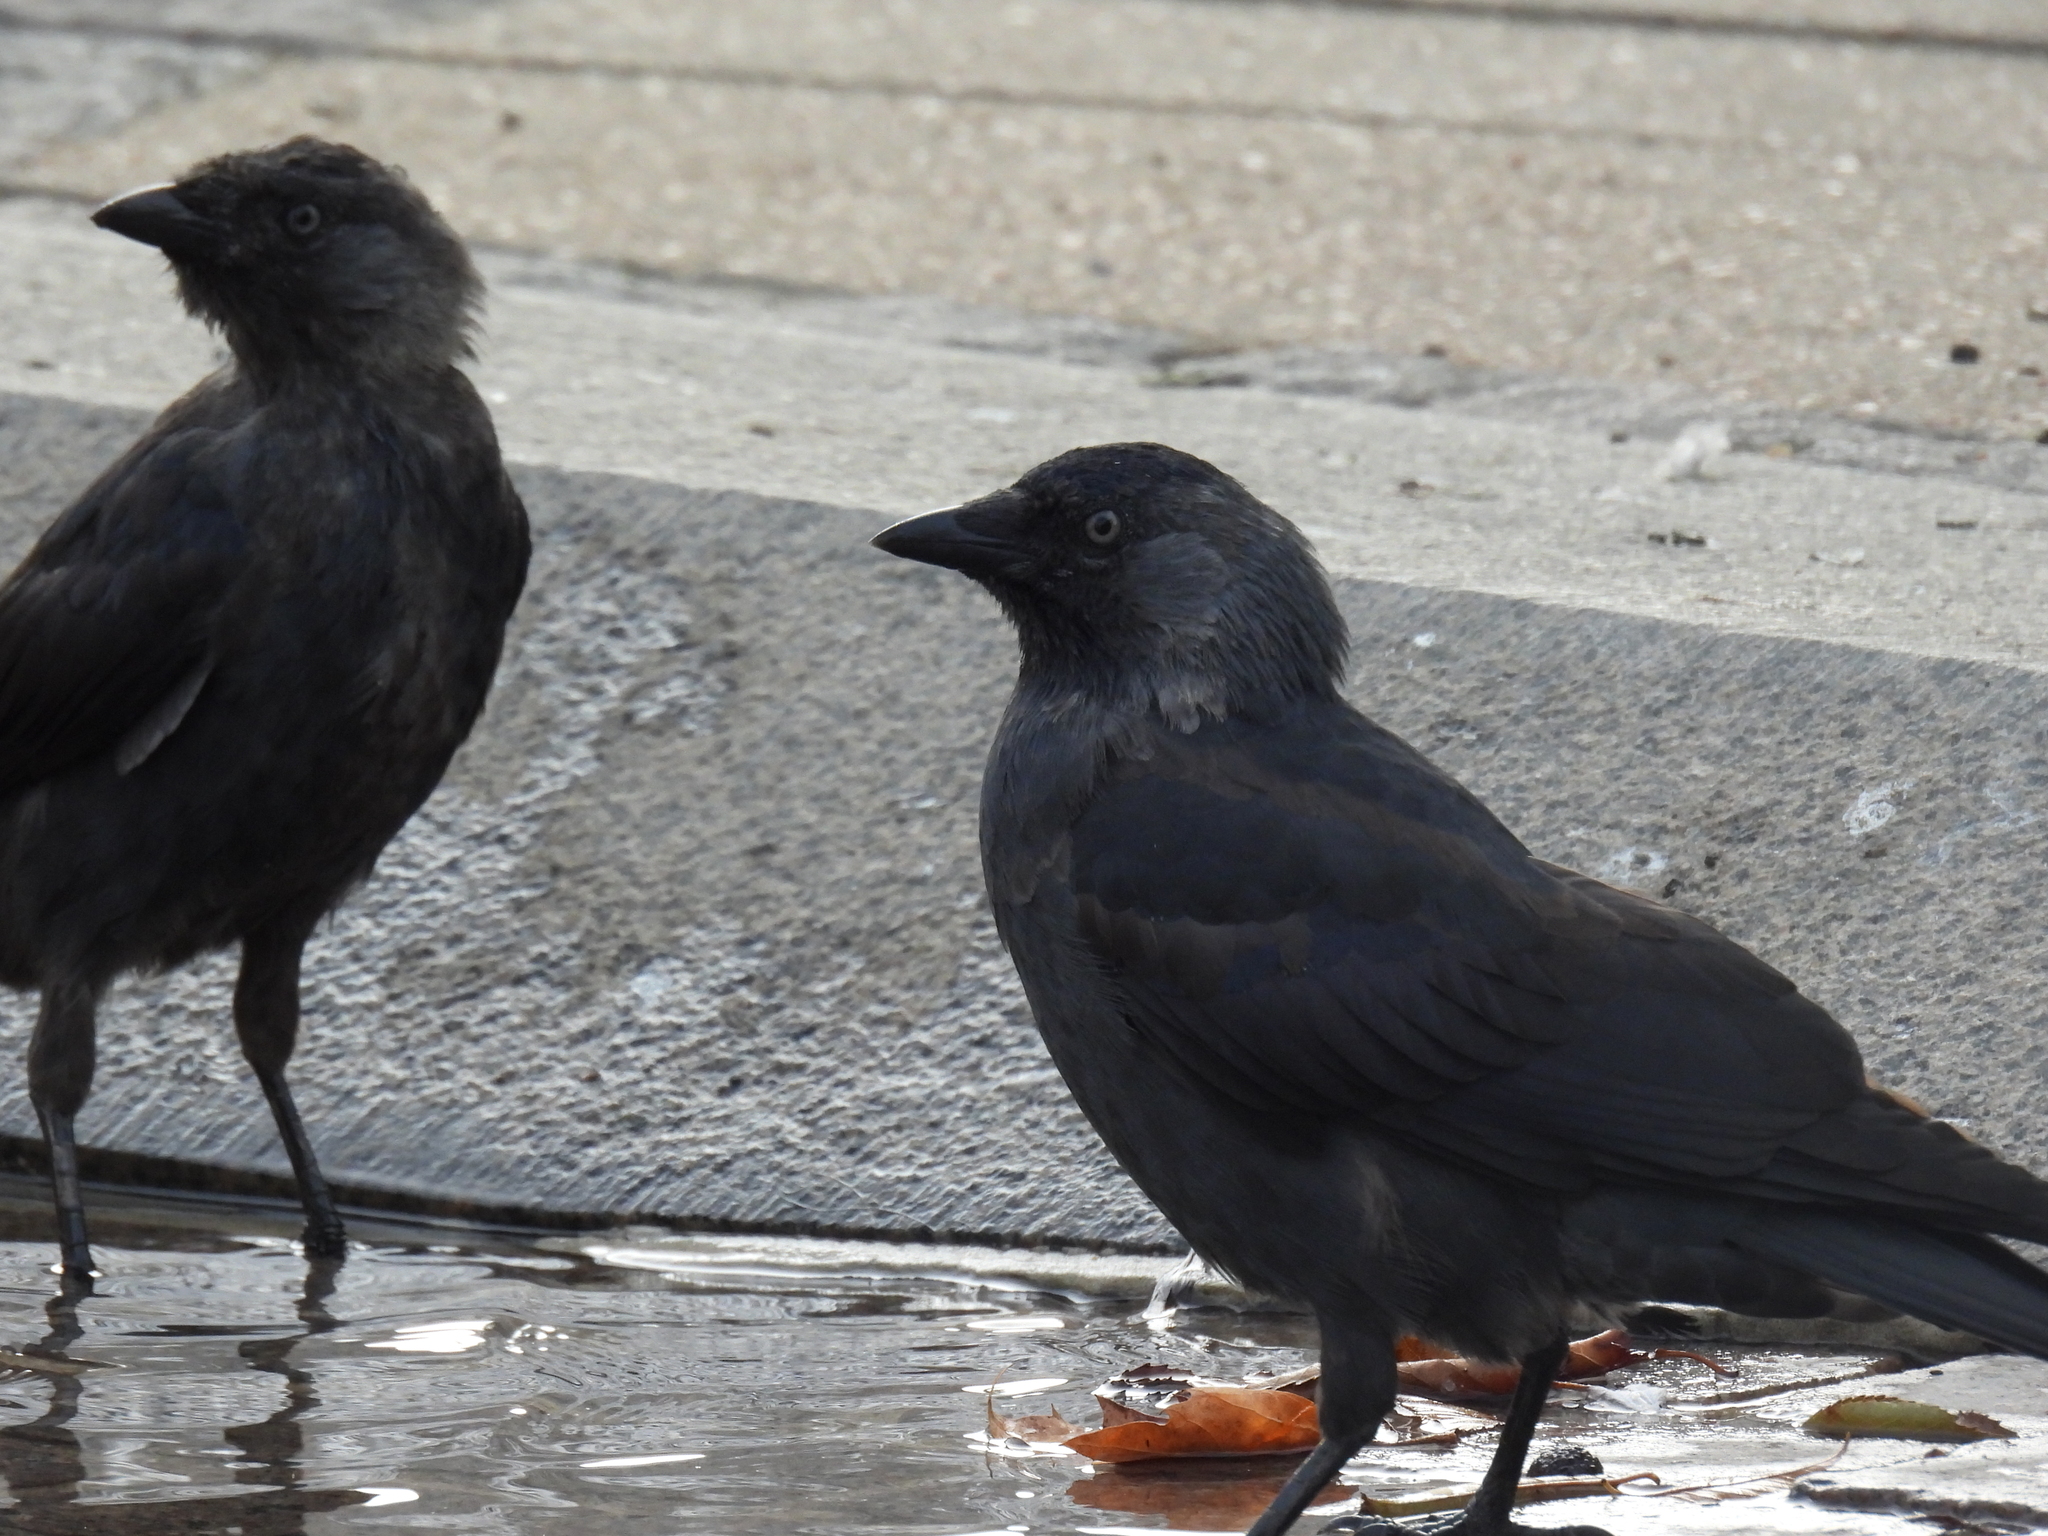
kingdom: Animalia
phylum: Chordata
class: Aves
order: Passeriformes
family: Corvidae
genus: Coloeus
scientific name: Coloeus monedula
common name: Western jackdaw
